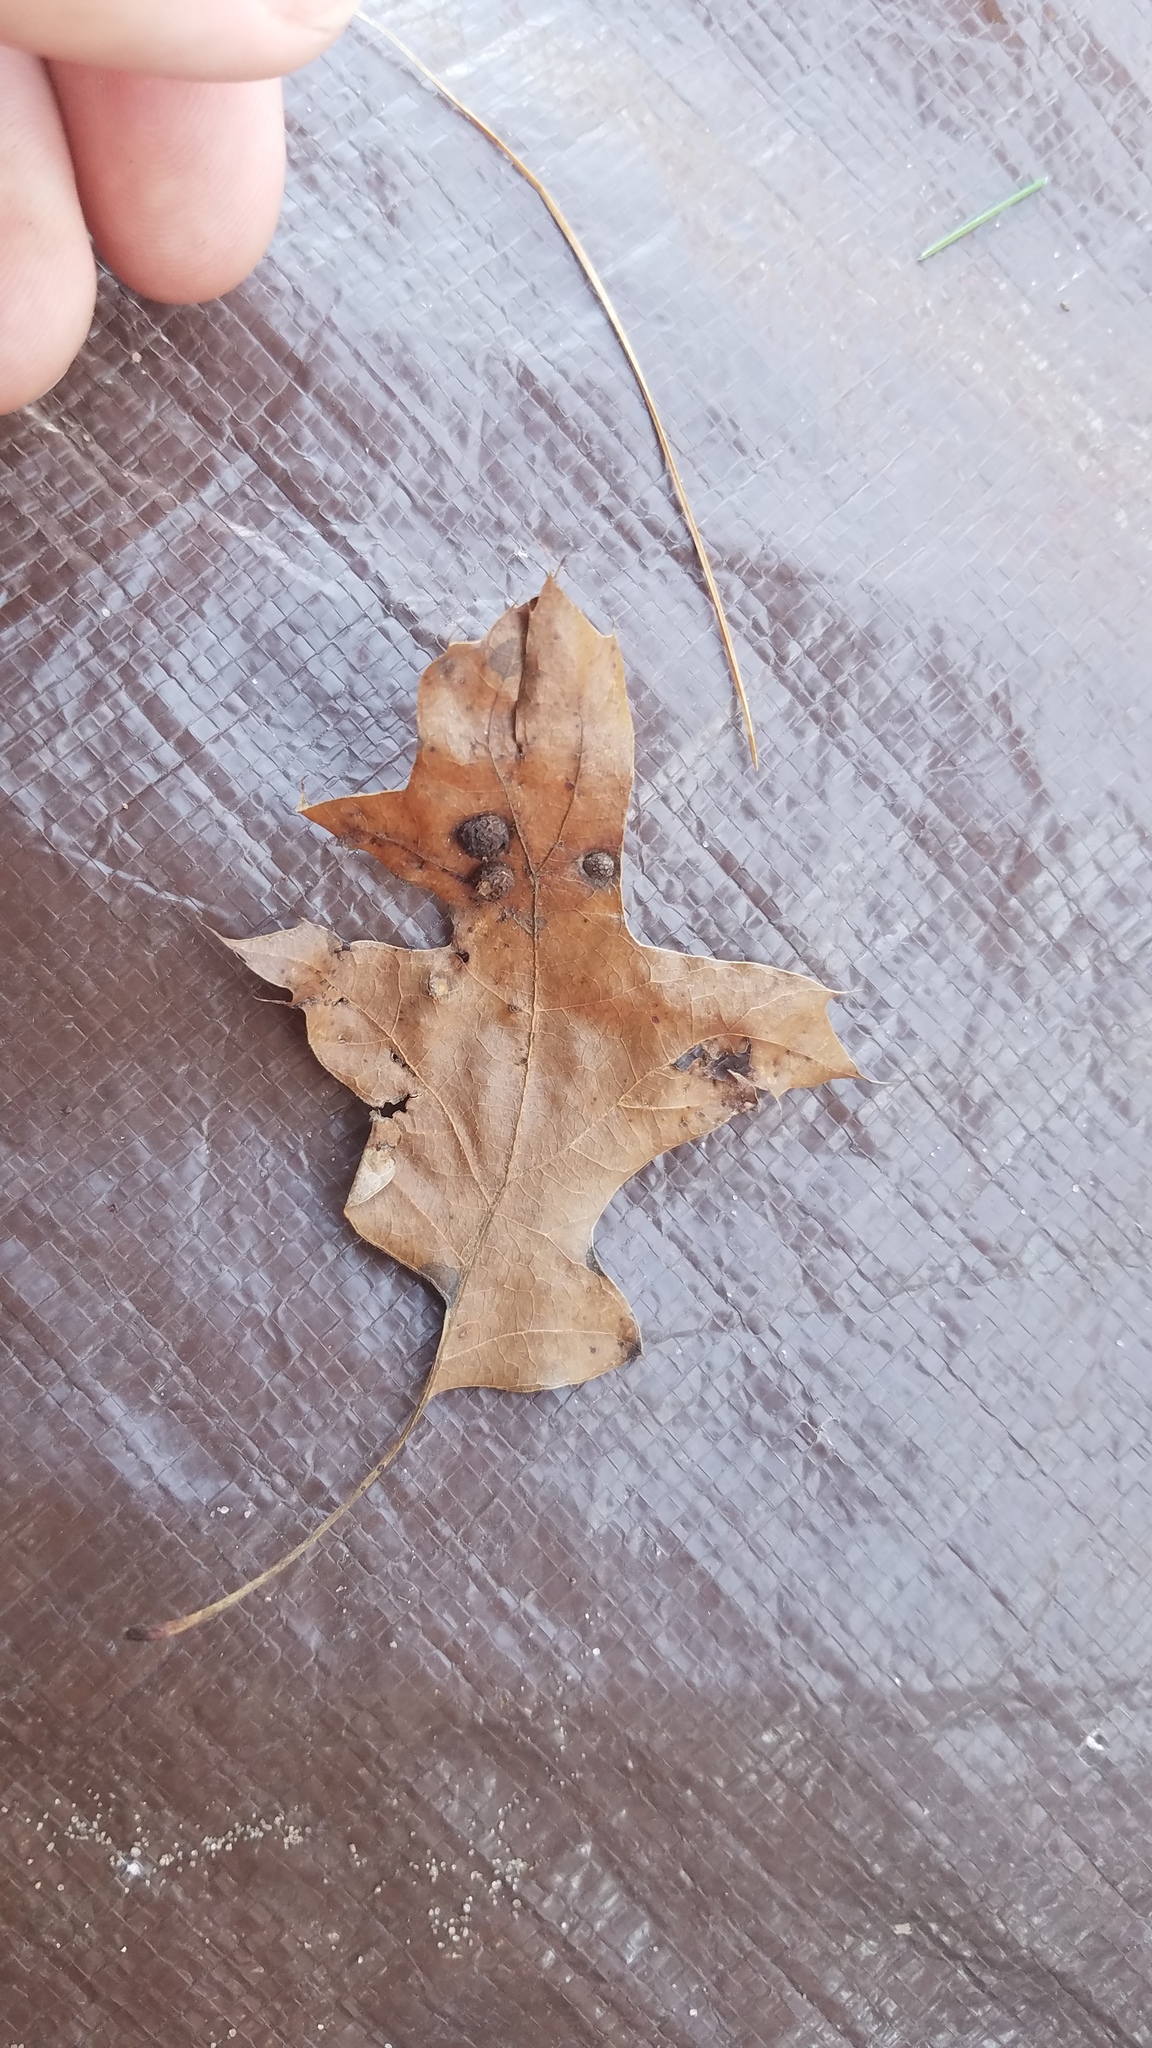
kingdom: Animalia
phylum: Arthropoda
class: Insecta
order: Diptera
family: Cecidomyiidae
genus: Polystepha
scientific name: Polystepha pilulae
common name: Oak leaf gall midge
